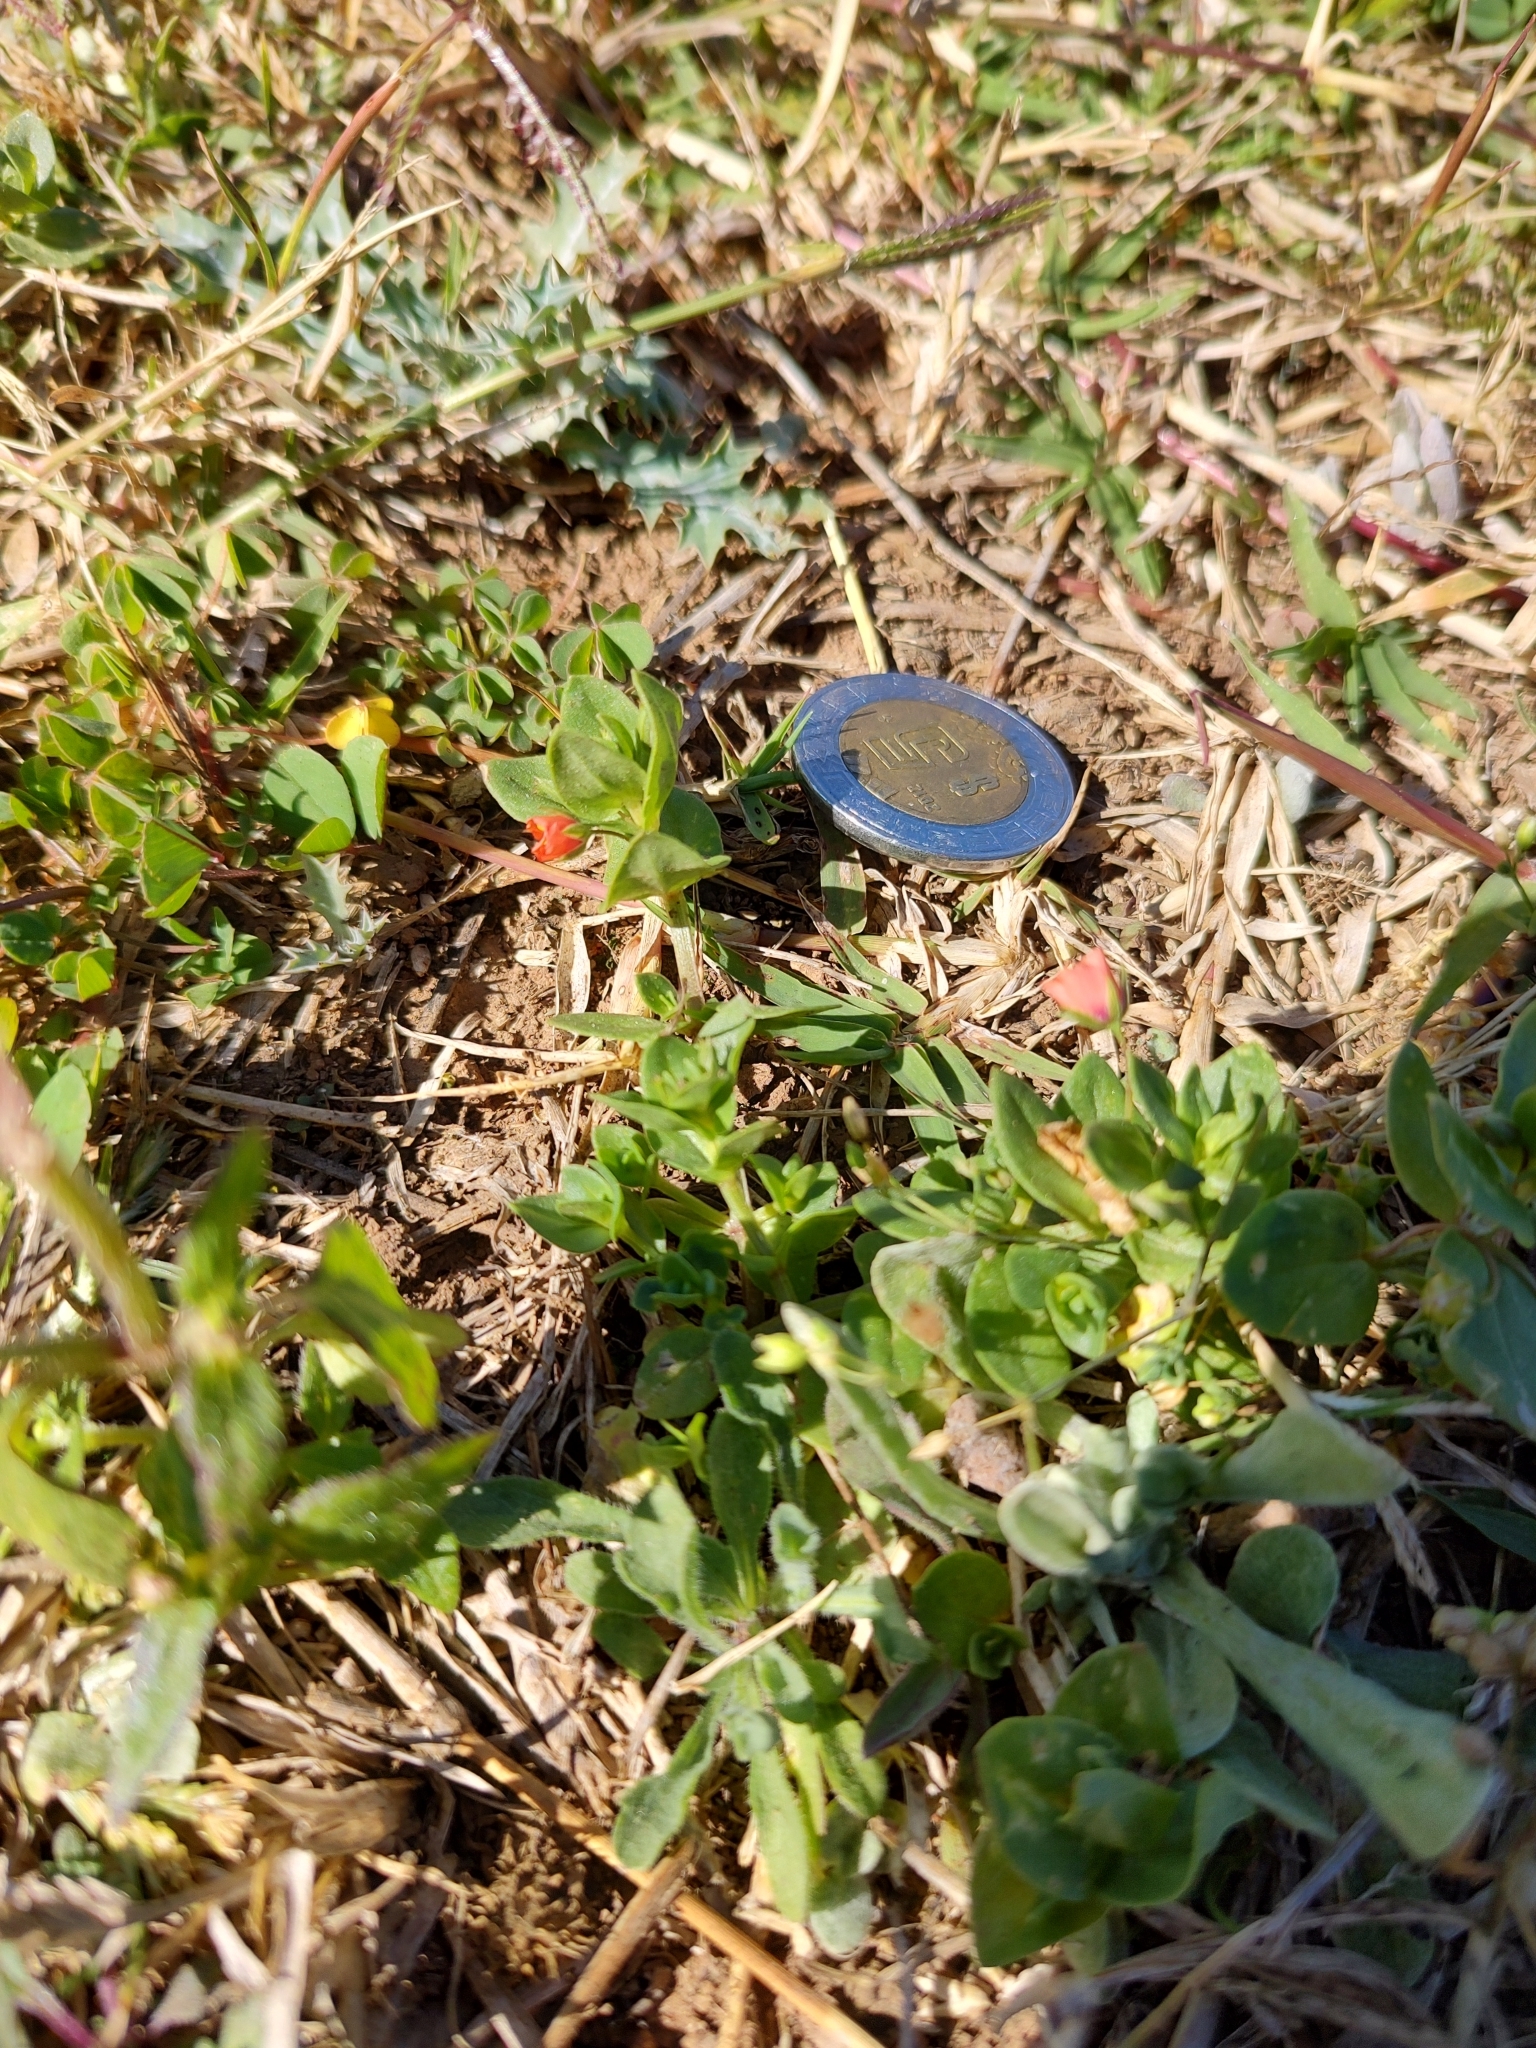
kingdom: Plantae
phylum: Tracheophyta
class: Magnoliopsida
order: Ericales
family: Primulaceae
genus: Lysimachia
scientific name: Lysimachia arvensis
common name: Scarlet pimpernel
